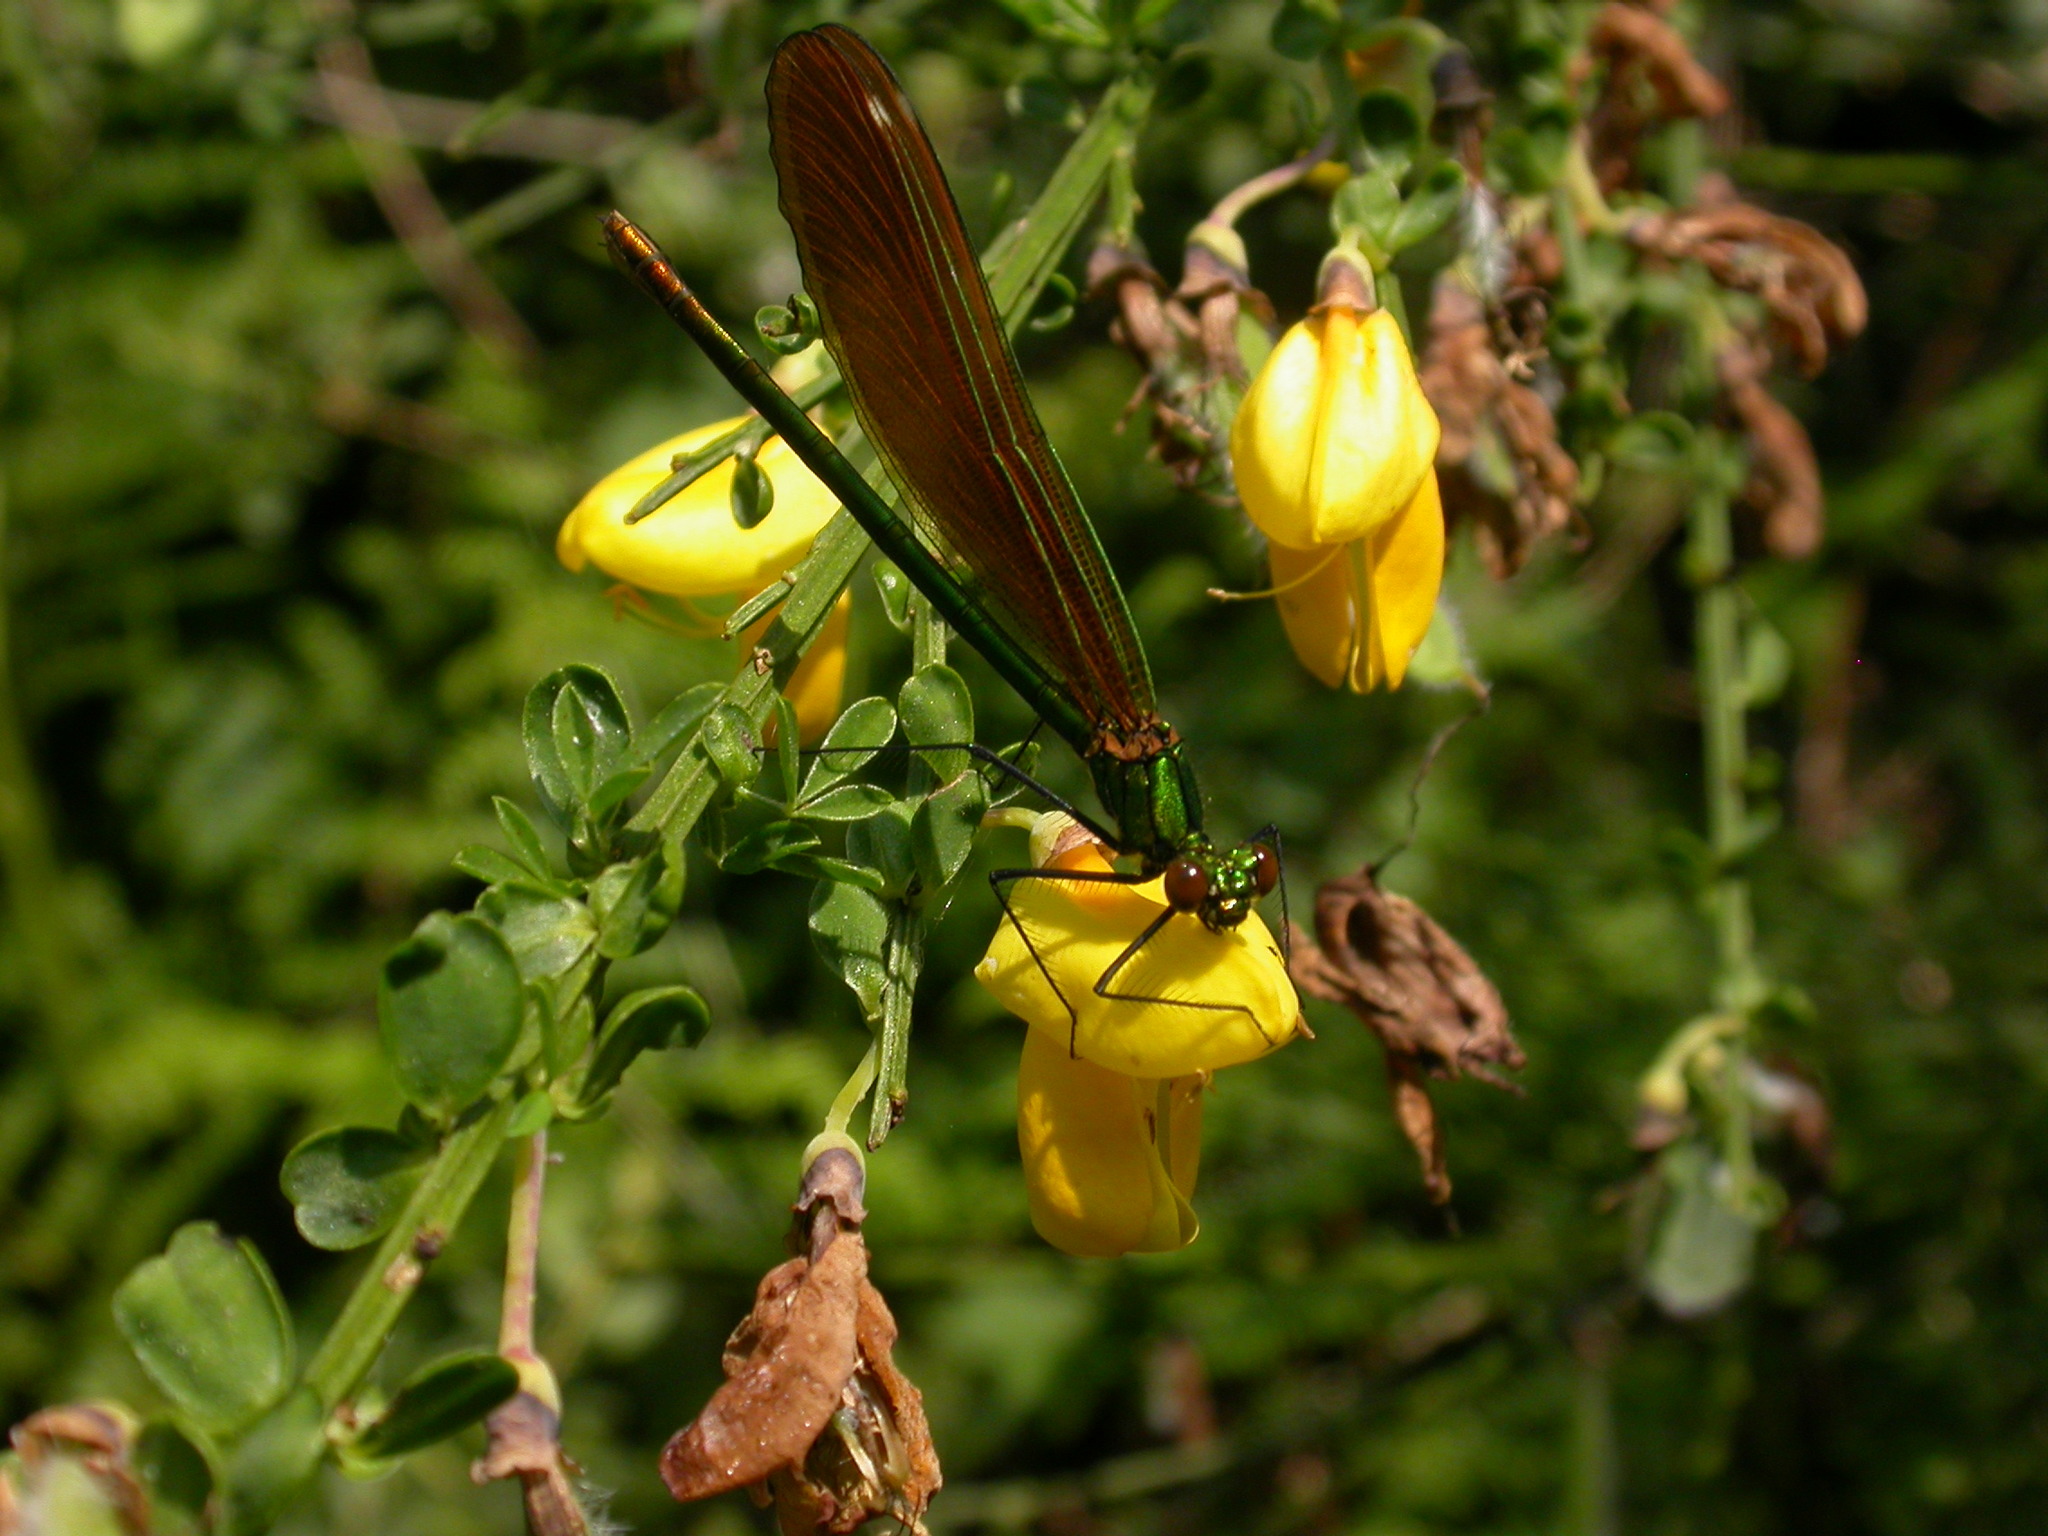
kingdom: Animalia
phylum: Arthropoda
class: Insecta
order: Odonata
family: Calopterygidae
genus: Calopteryx
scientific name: Calopteryx virgo
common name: Beautiful demoiselle
